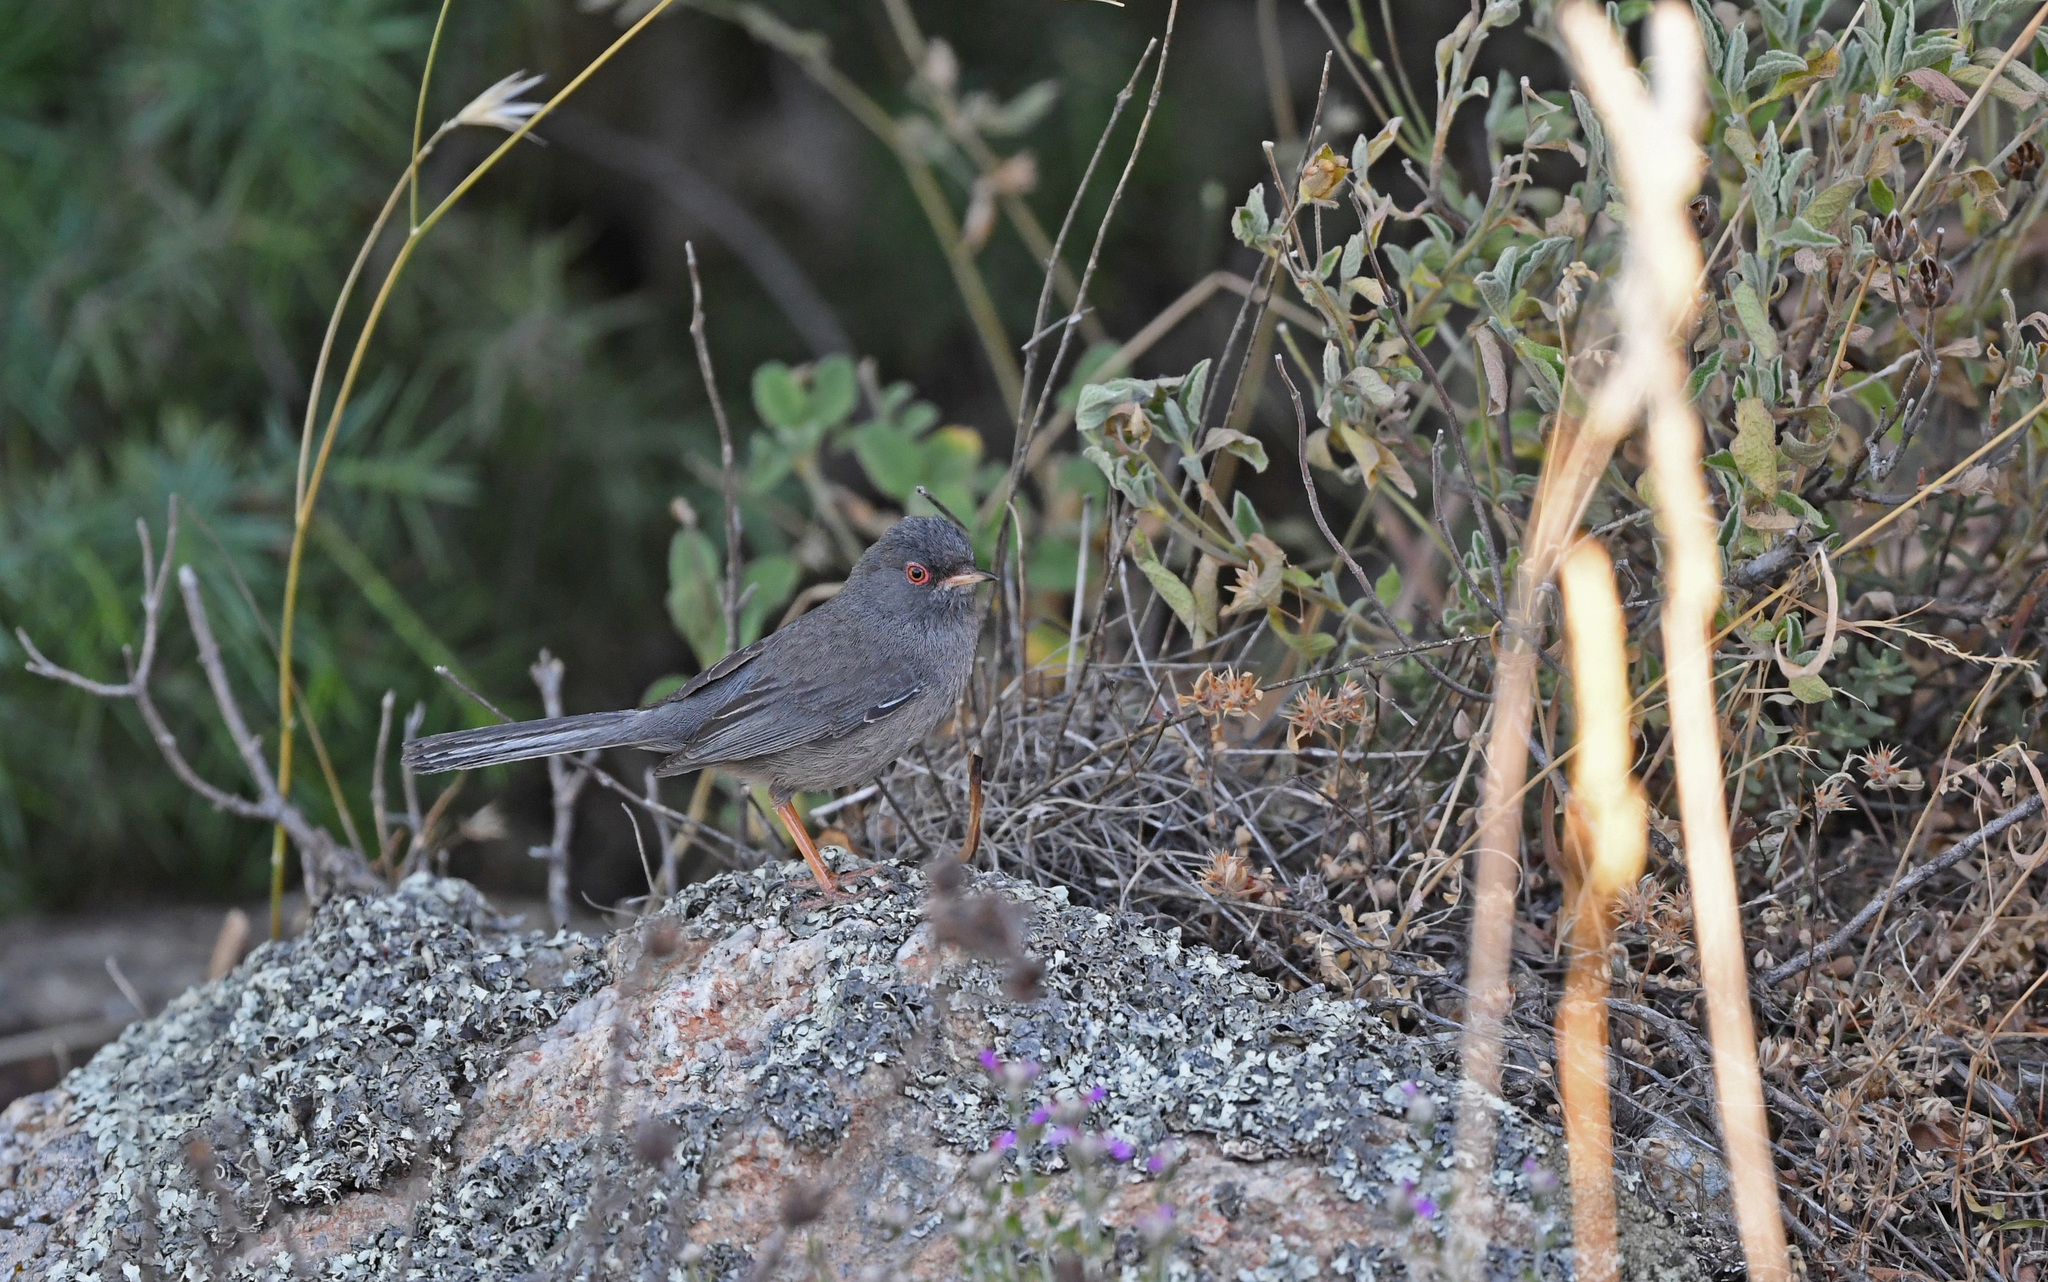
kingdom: Animalia
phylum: Chordata
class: Aves
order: Passeriformes
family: Sylviidae
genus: Sylvia
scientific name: Sylvia sarda
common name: Marmora's warbler
